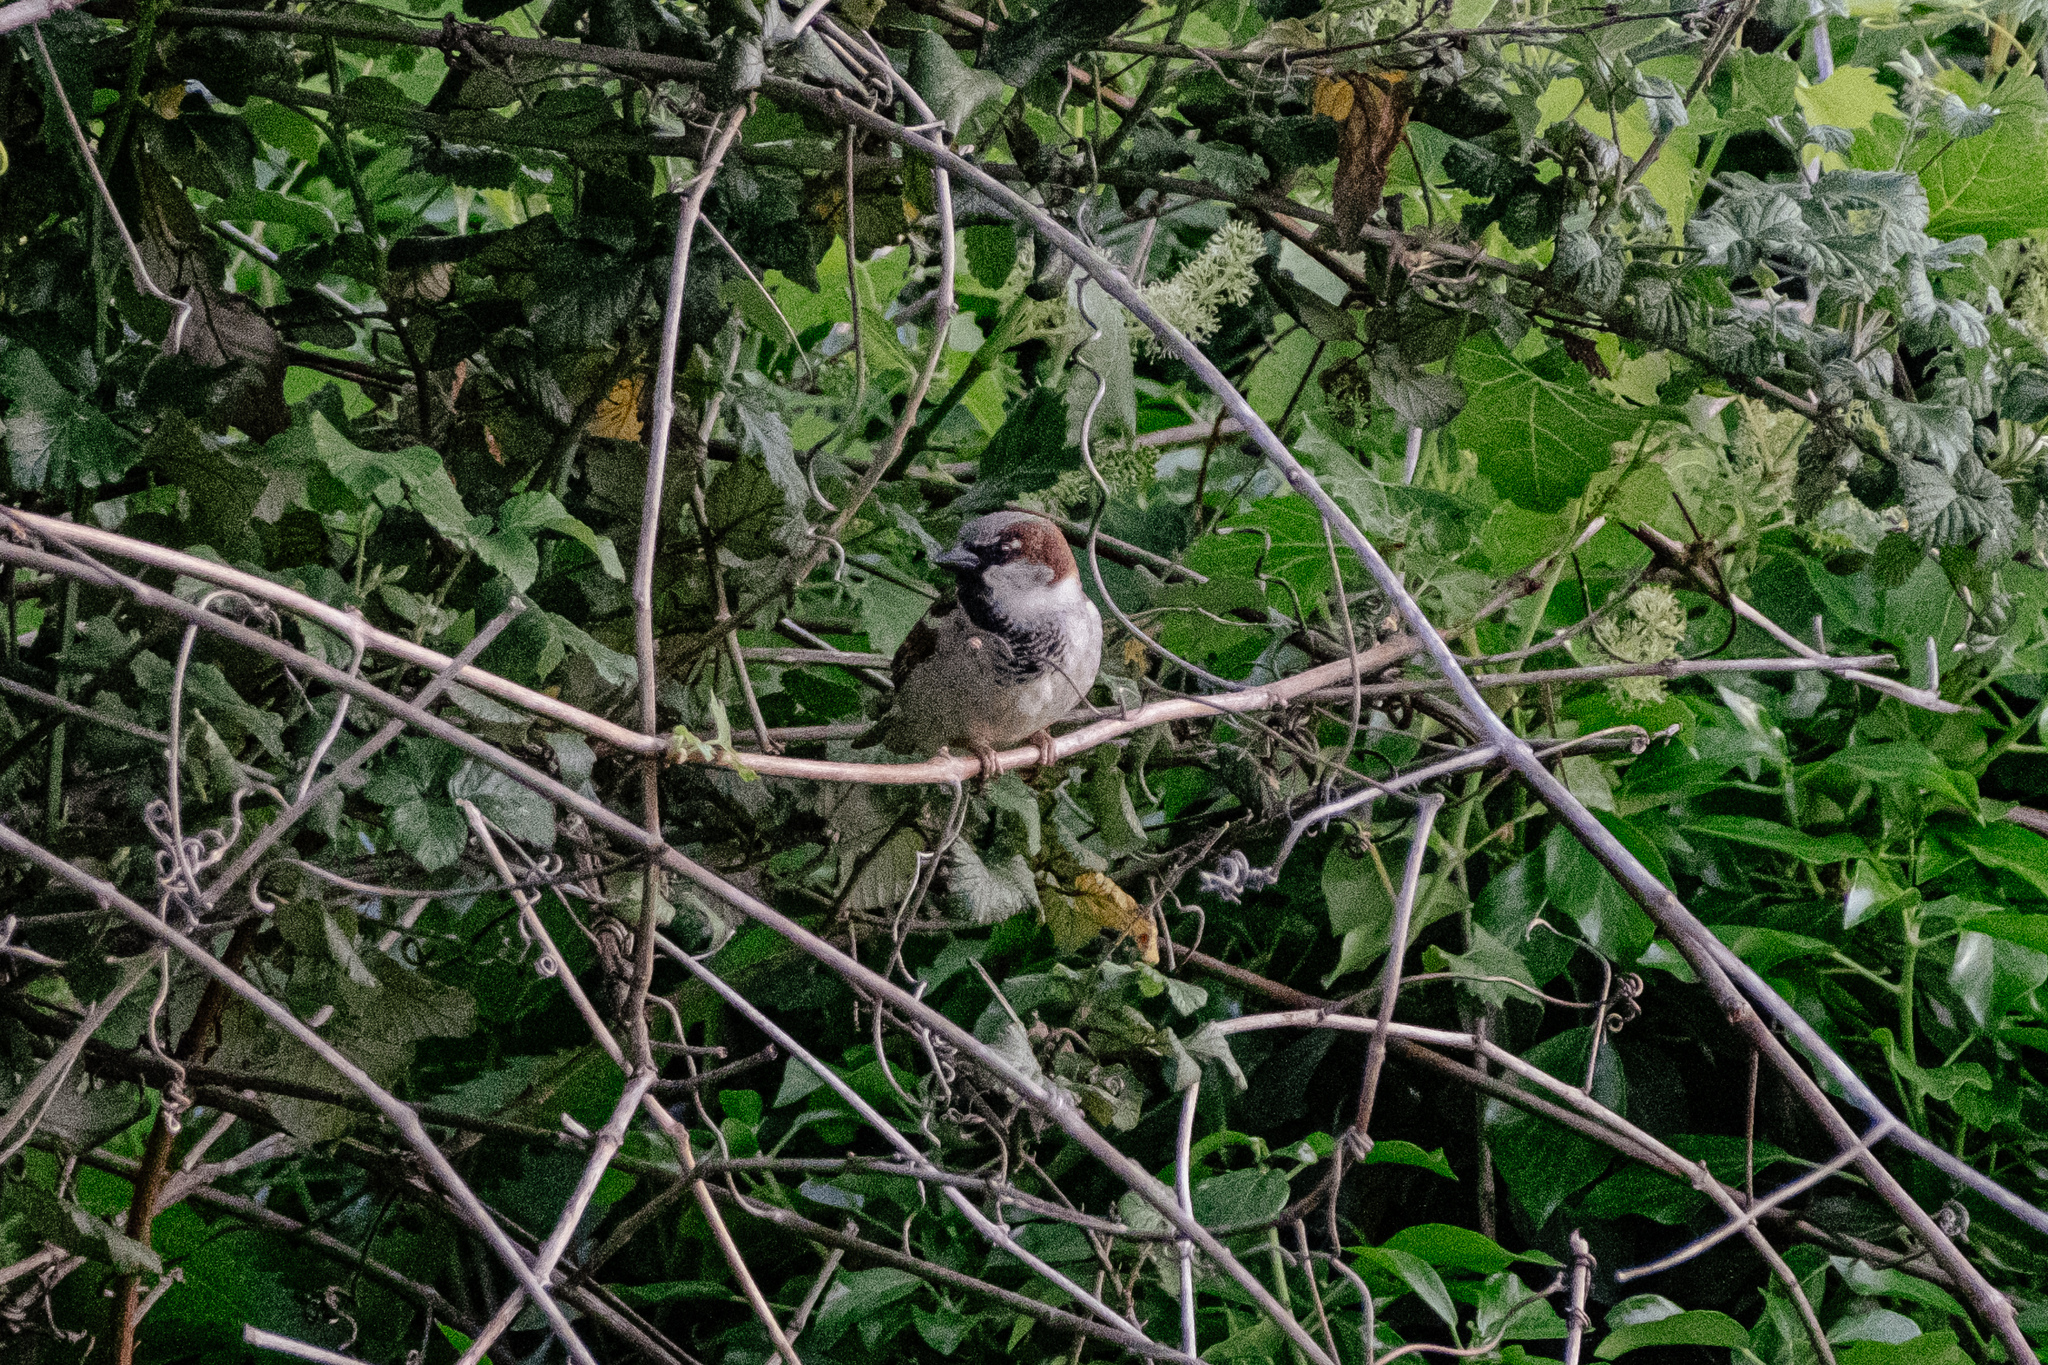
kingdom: Animalia
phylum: Chordata
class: Aves
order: Passeriformes
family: Passeridae
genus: Passer
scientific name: Passer domesticus
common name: House sparrow
